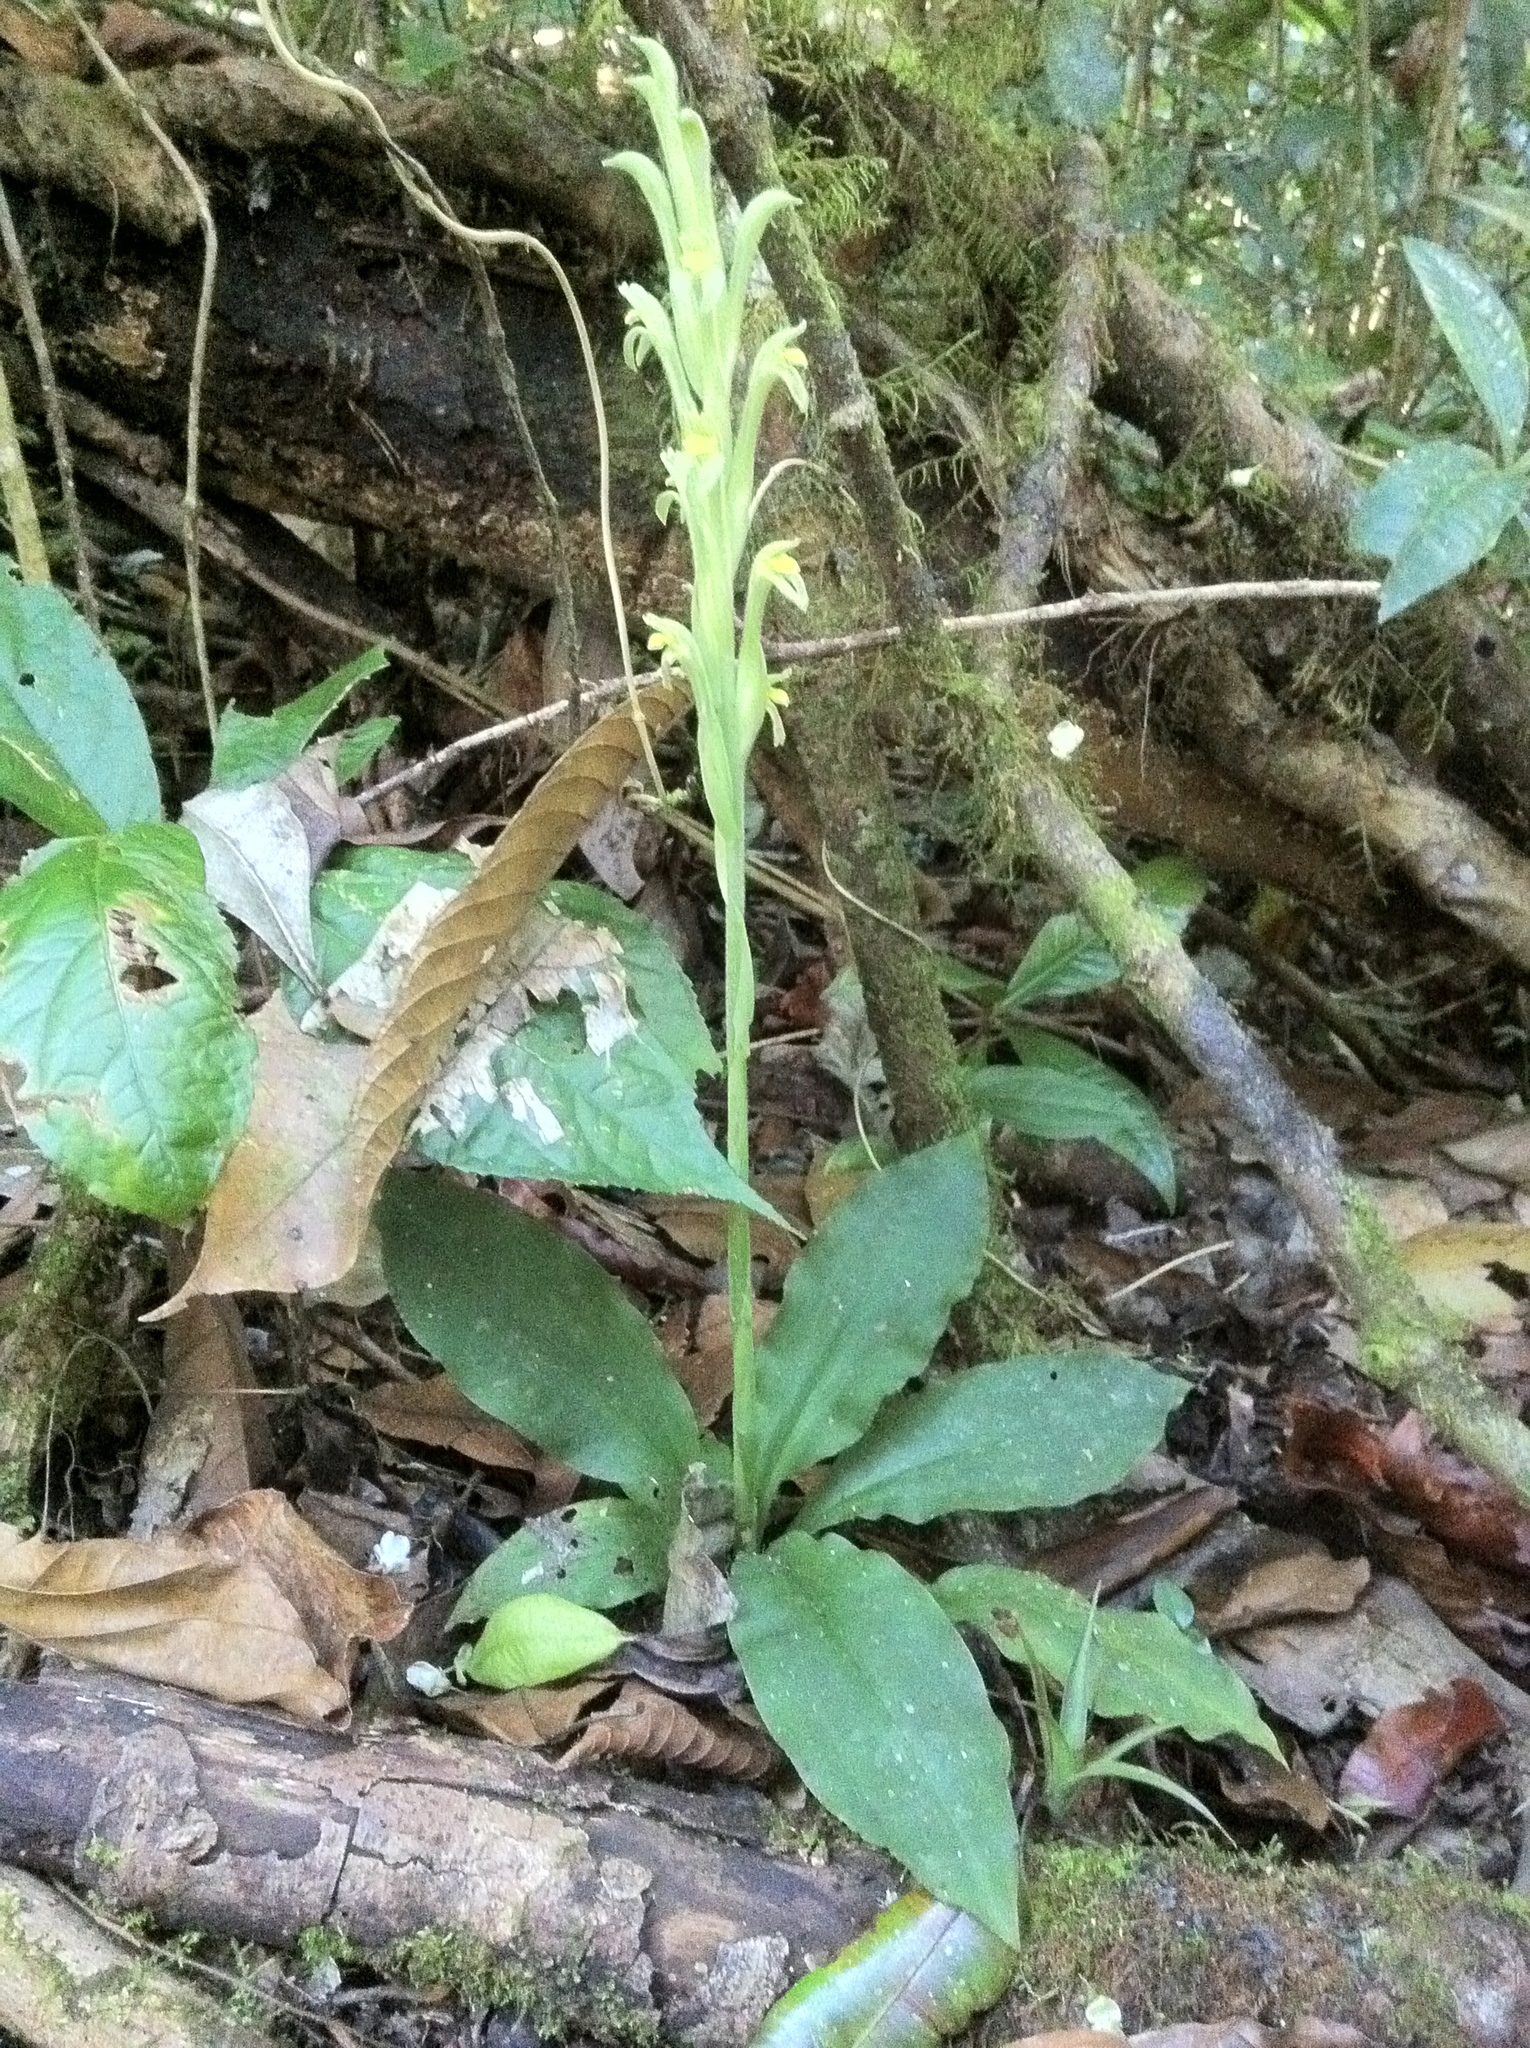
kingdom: Plantae
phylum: Tracheophyta
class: Liliopsida
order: Asparagales
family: Orchidaceae
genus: Sarcoglottis
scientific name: Sarcoglottis hunteriana
